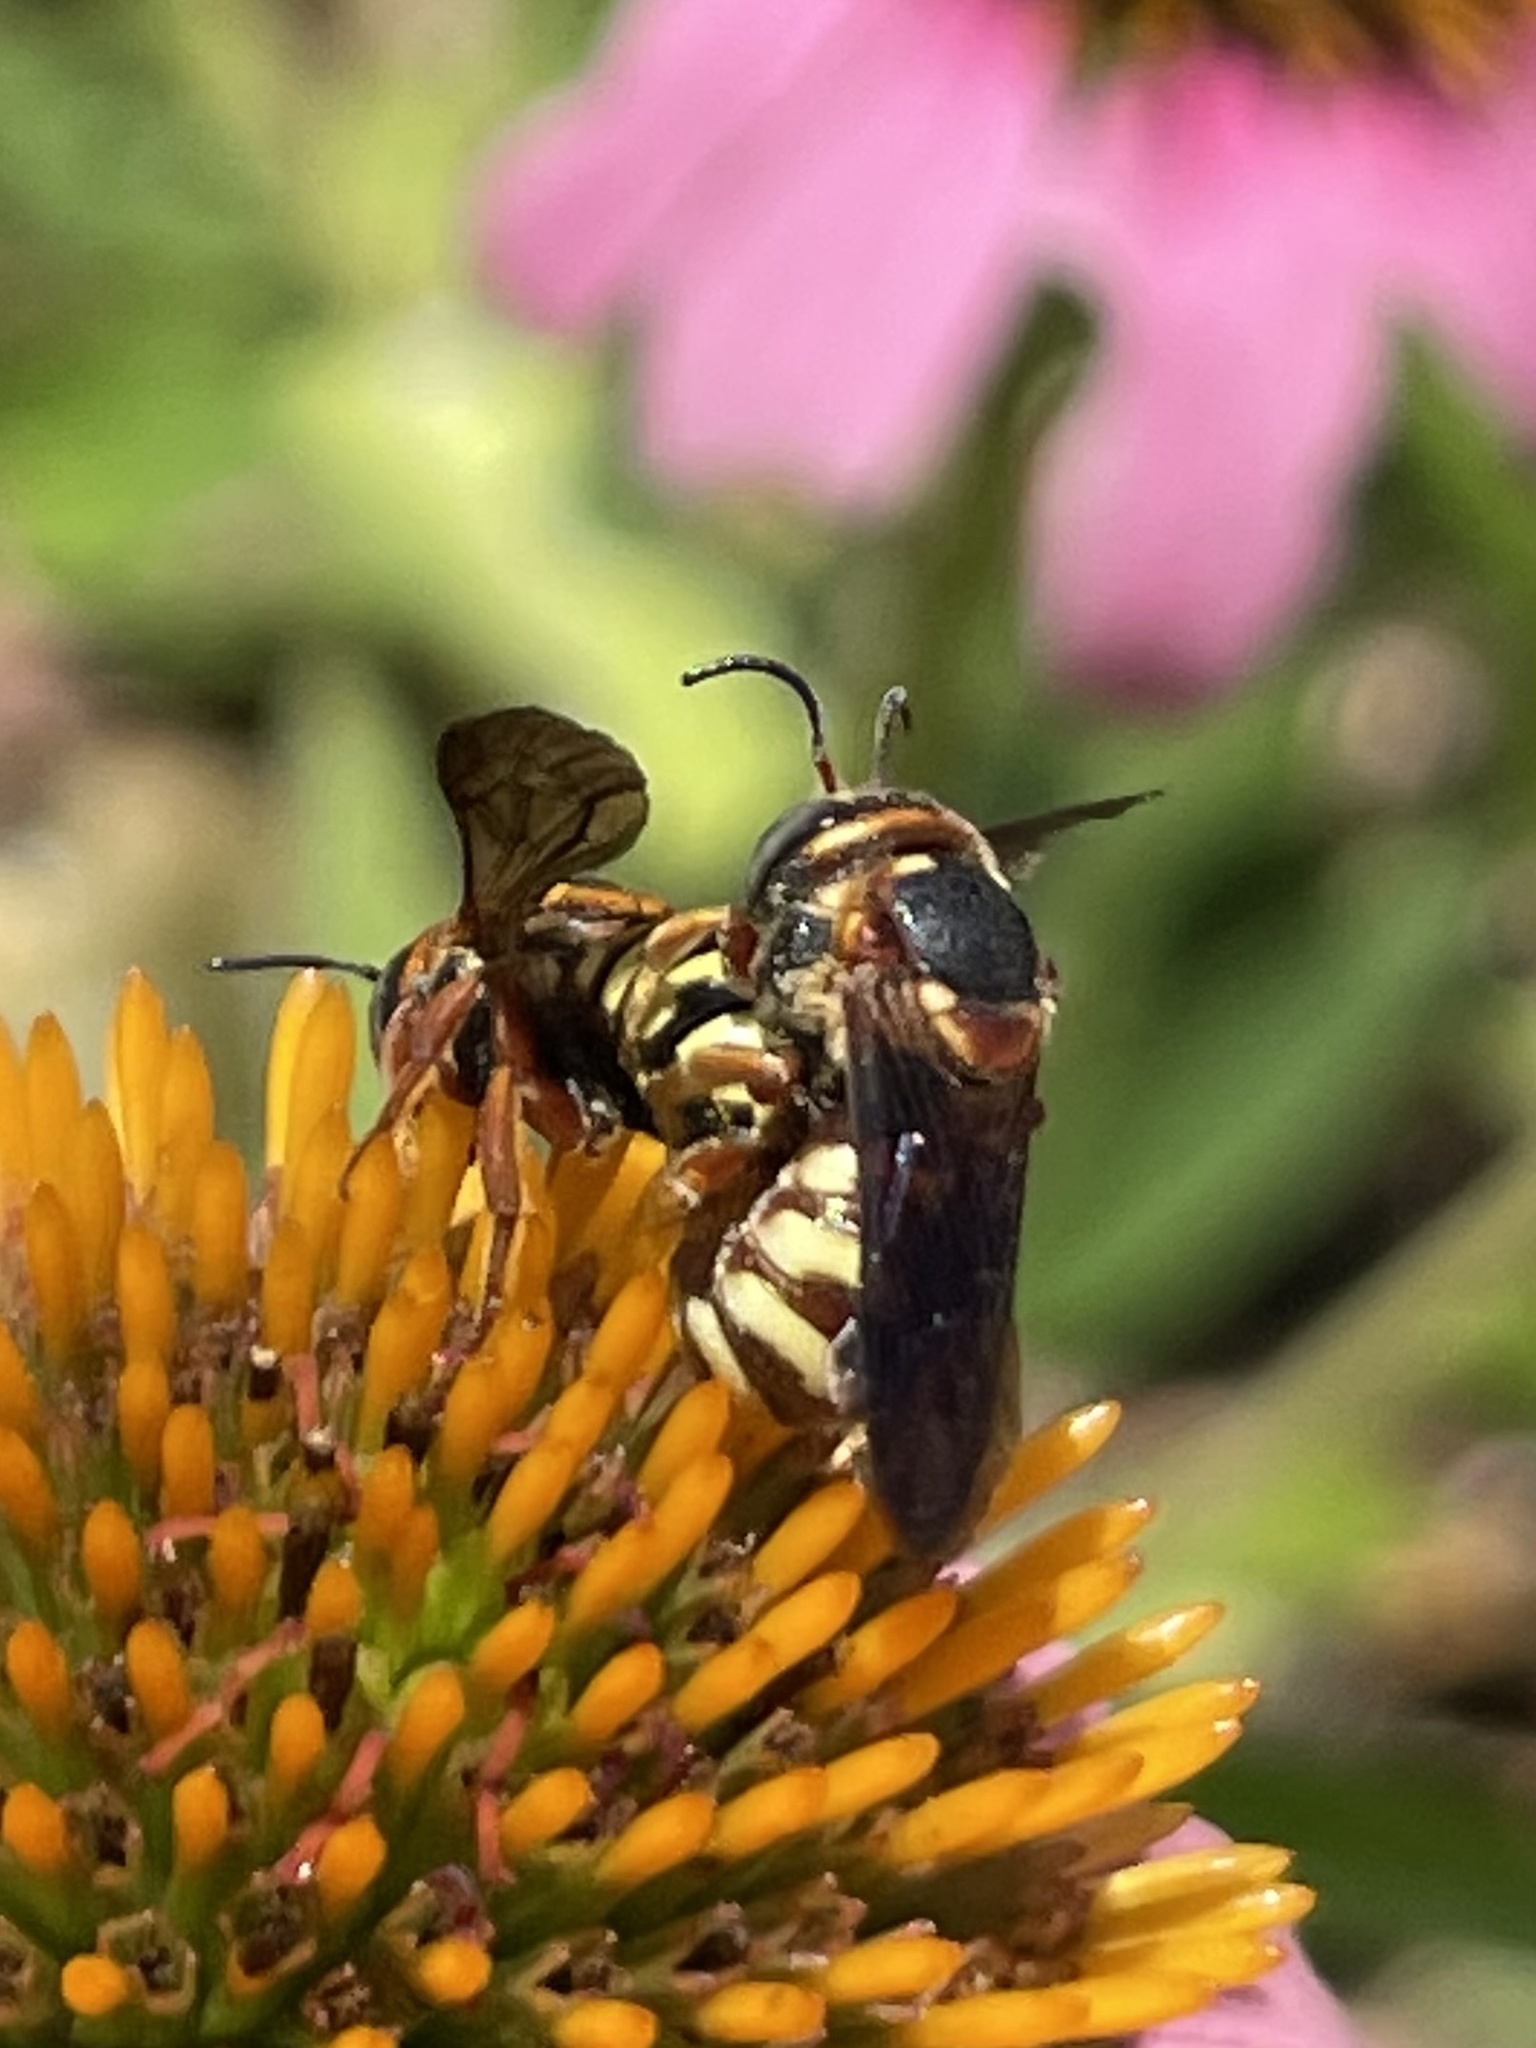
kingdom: Animalia
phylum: Arthropoda
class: Insecta
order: Hymenoptera
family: Megachilidae
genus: Dianthidium
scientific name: Dianthidium curvatum
